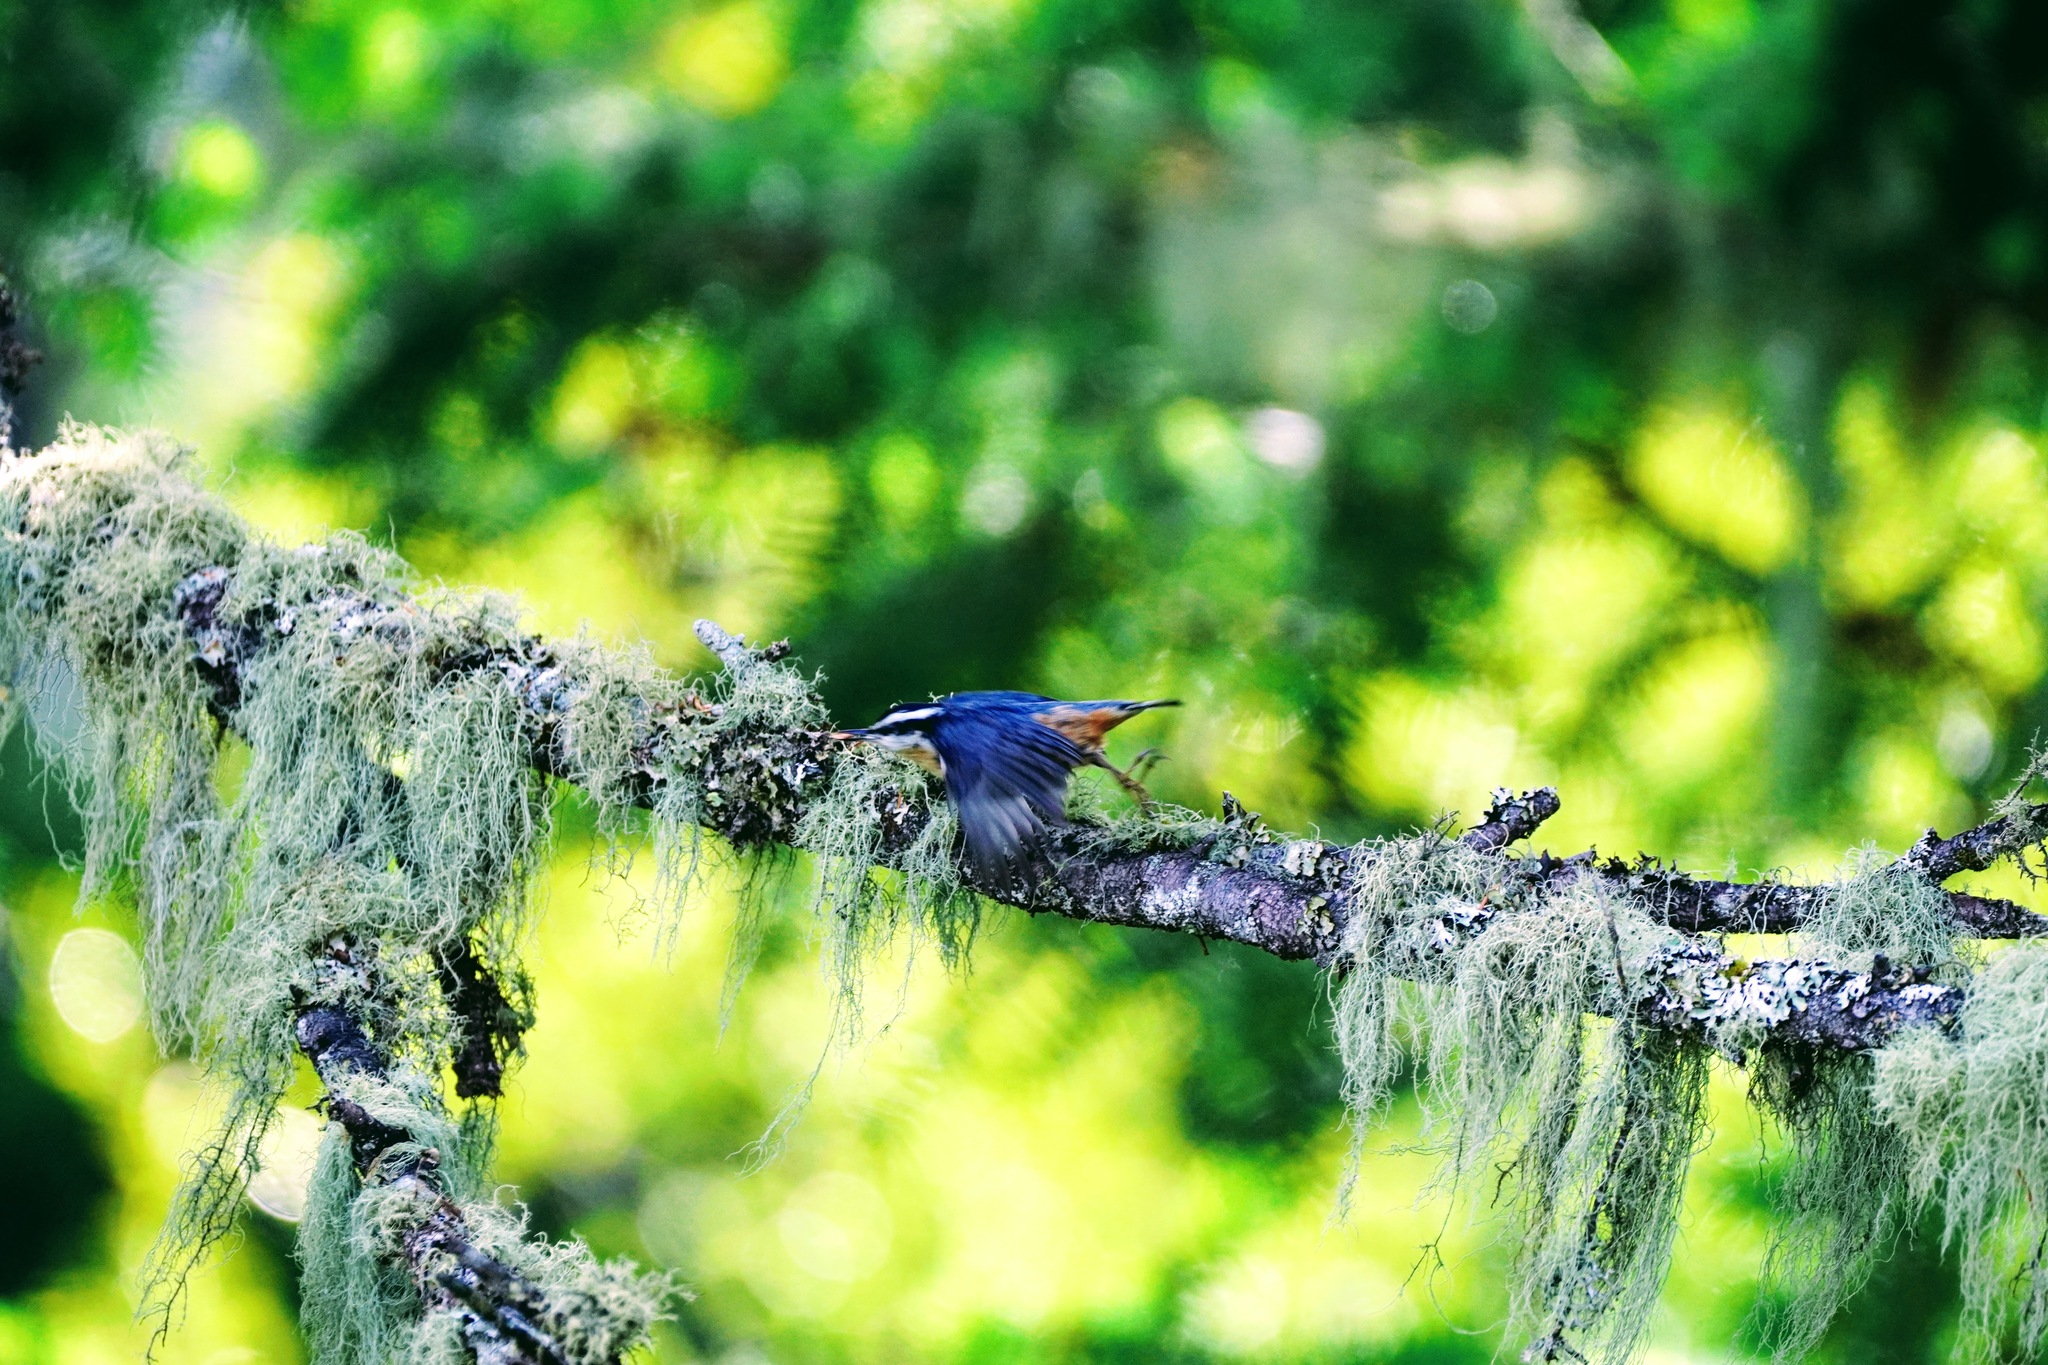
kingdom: Animalia
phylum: Chordata
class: Aves
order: Passeriformes
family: Sittidae
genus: Sitta
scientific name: Sitta canadensis
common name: Red-breasted nuthatch
